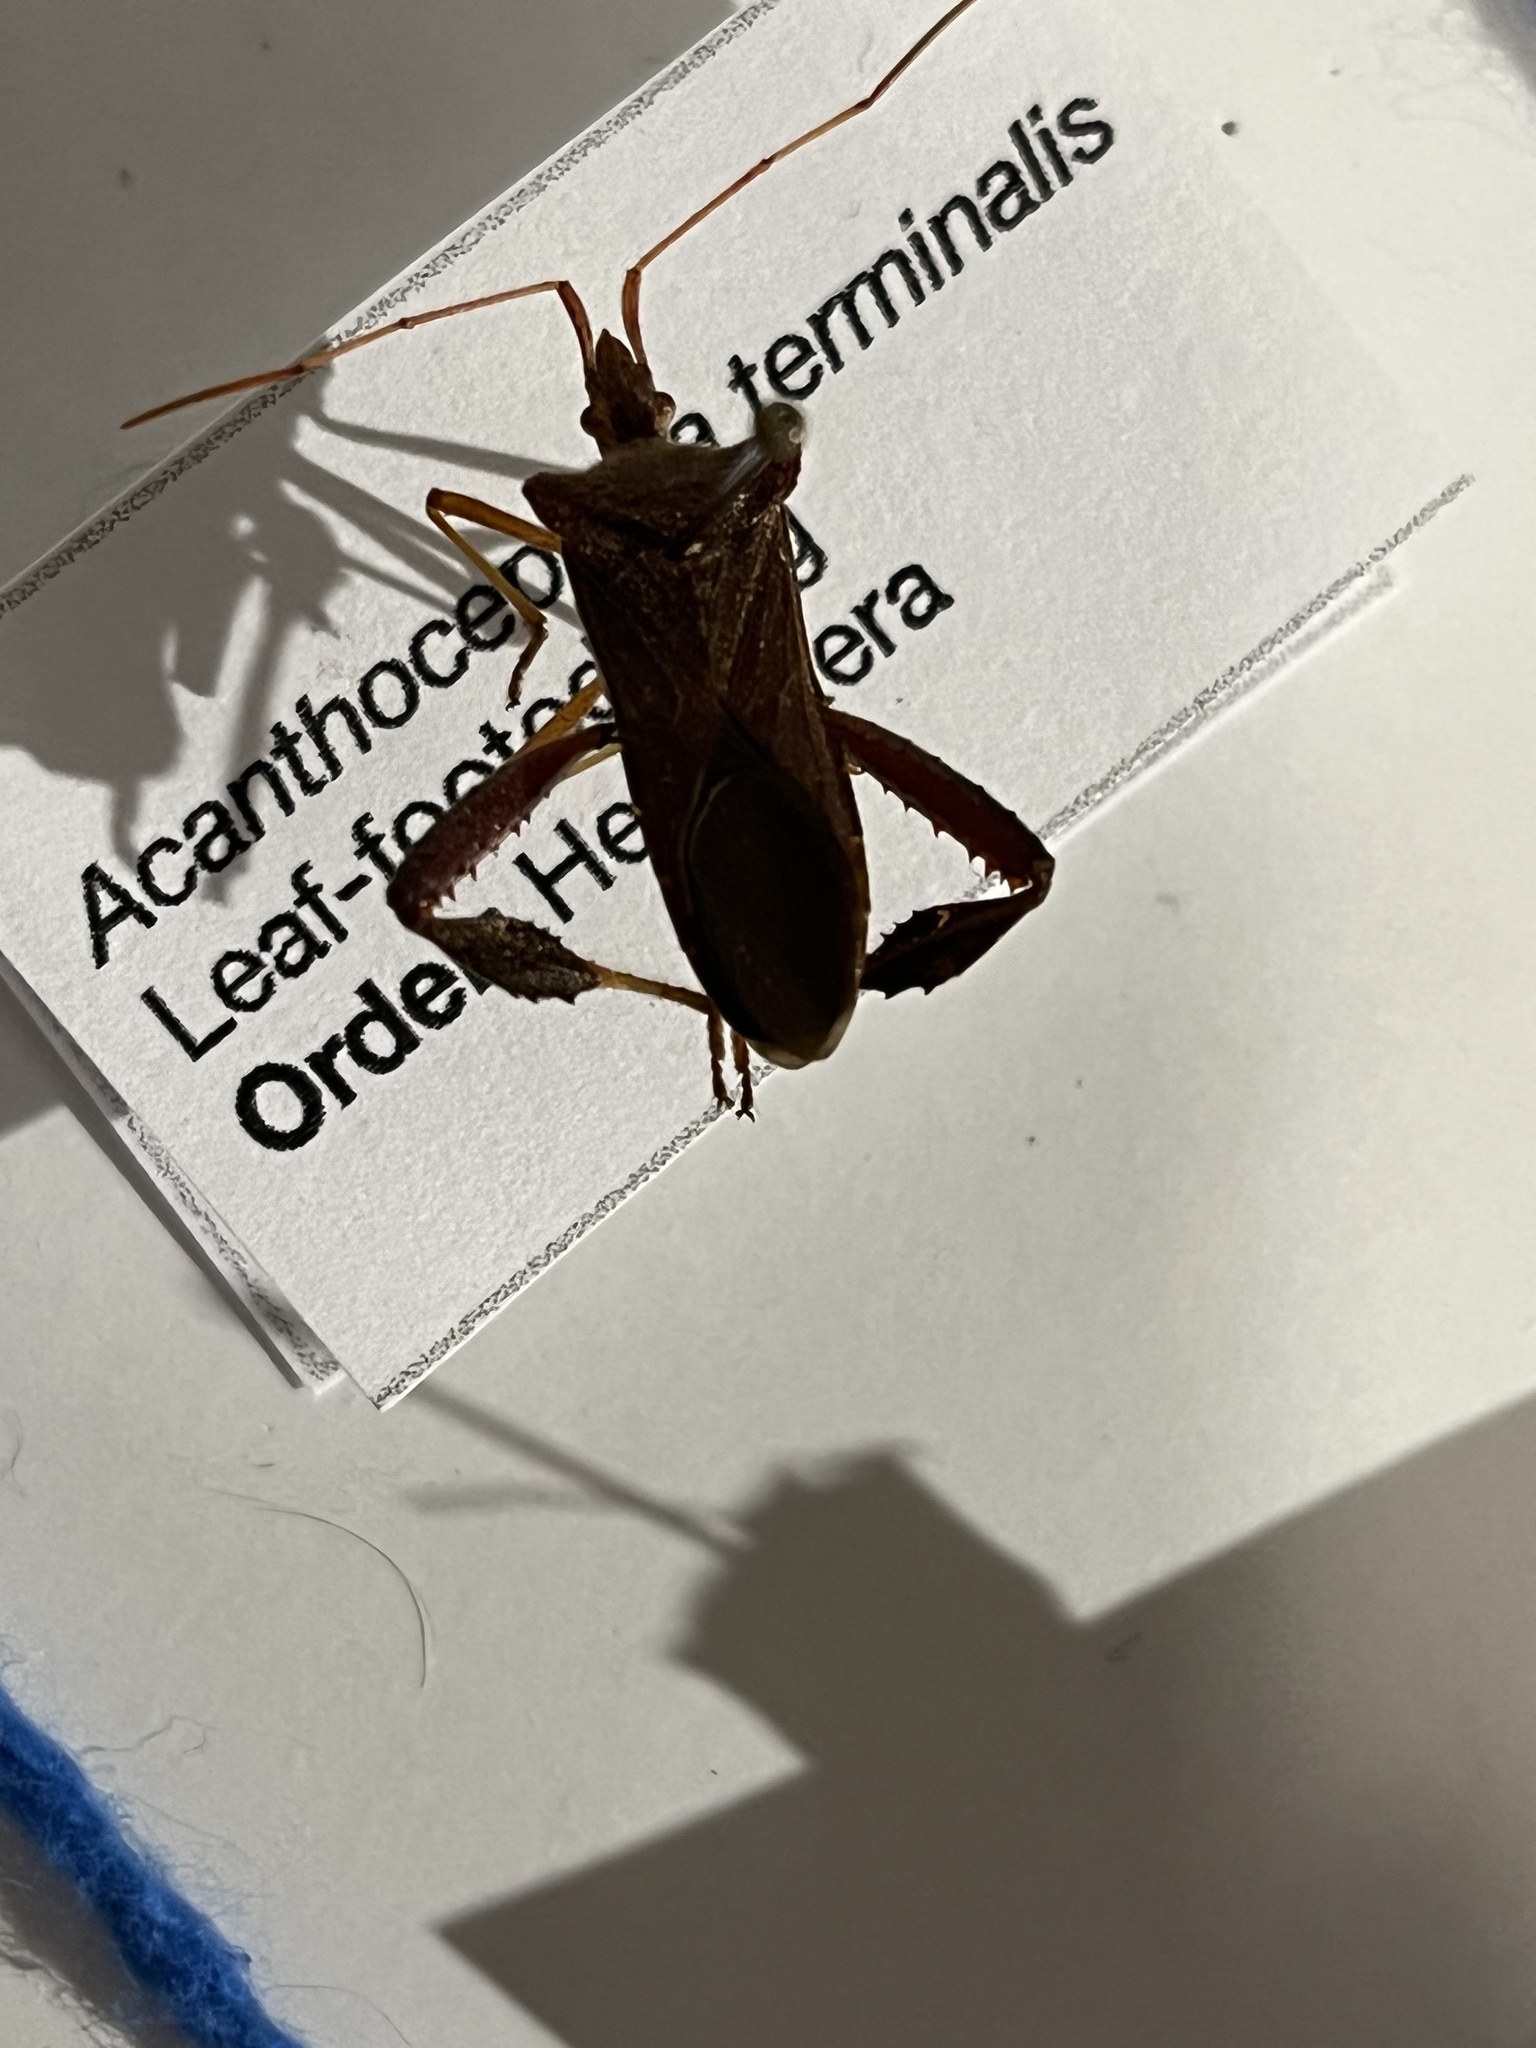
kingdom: Animalia
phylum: Arthropoda
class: Insecta
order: Hemiptera
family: Coreidae
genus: Leptoglossus
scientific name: Leptoglossus fulvicornis
